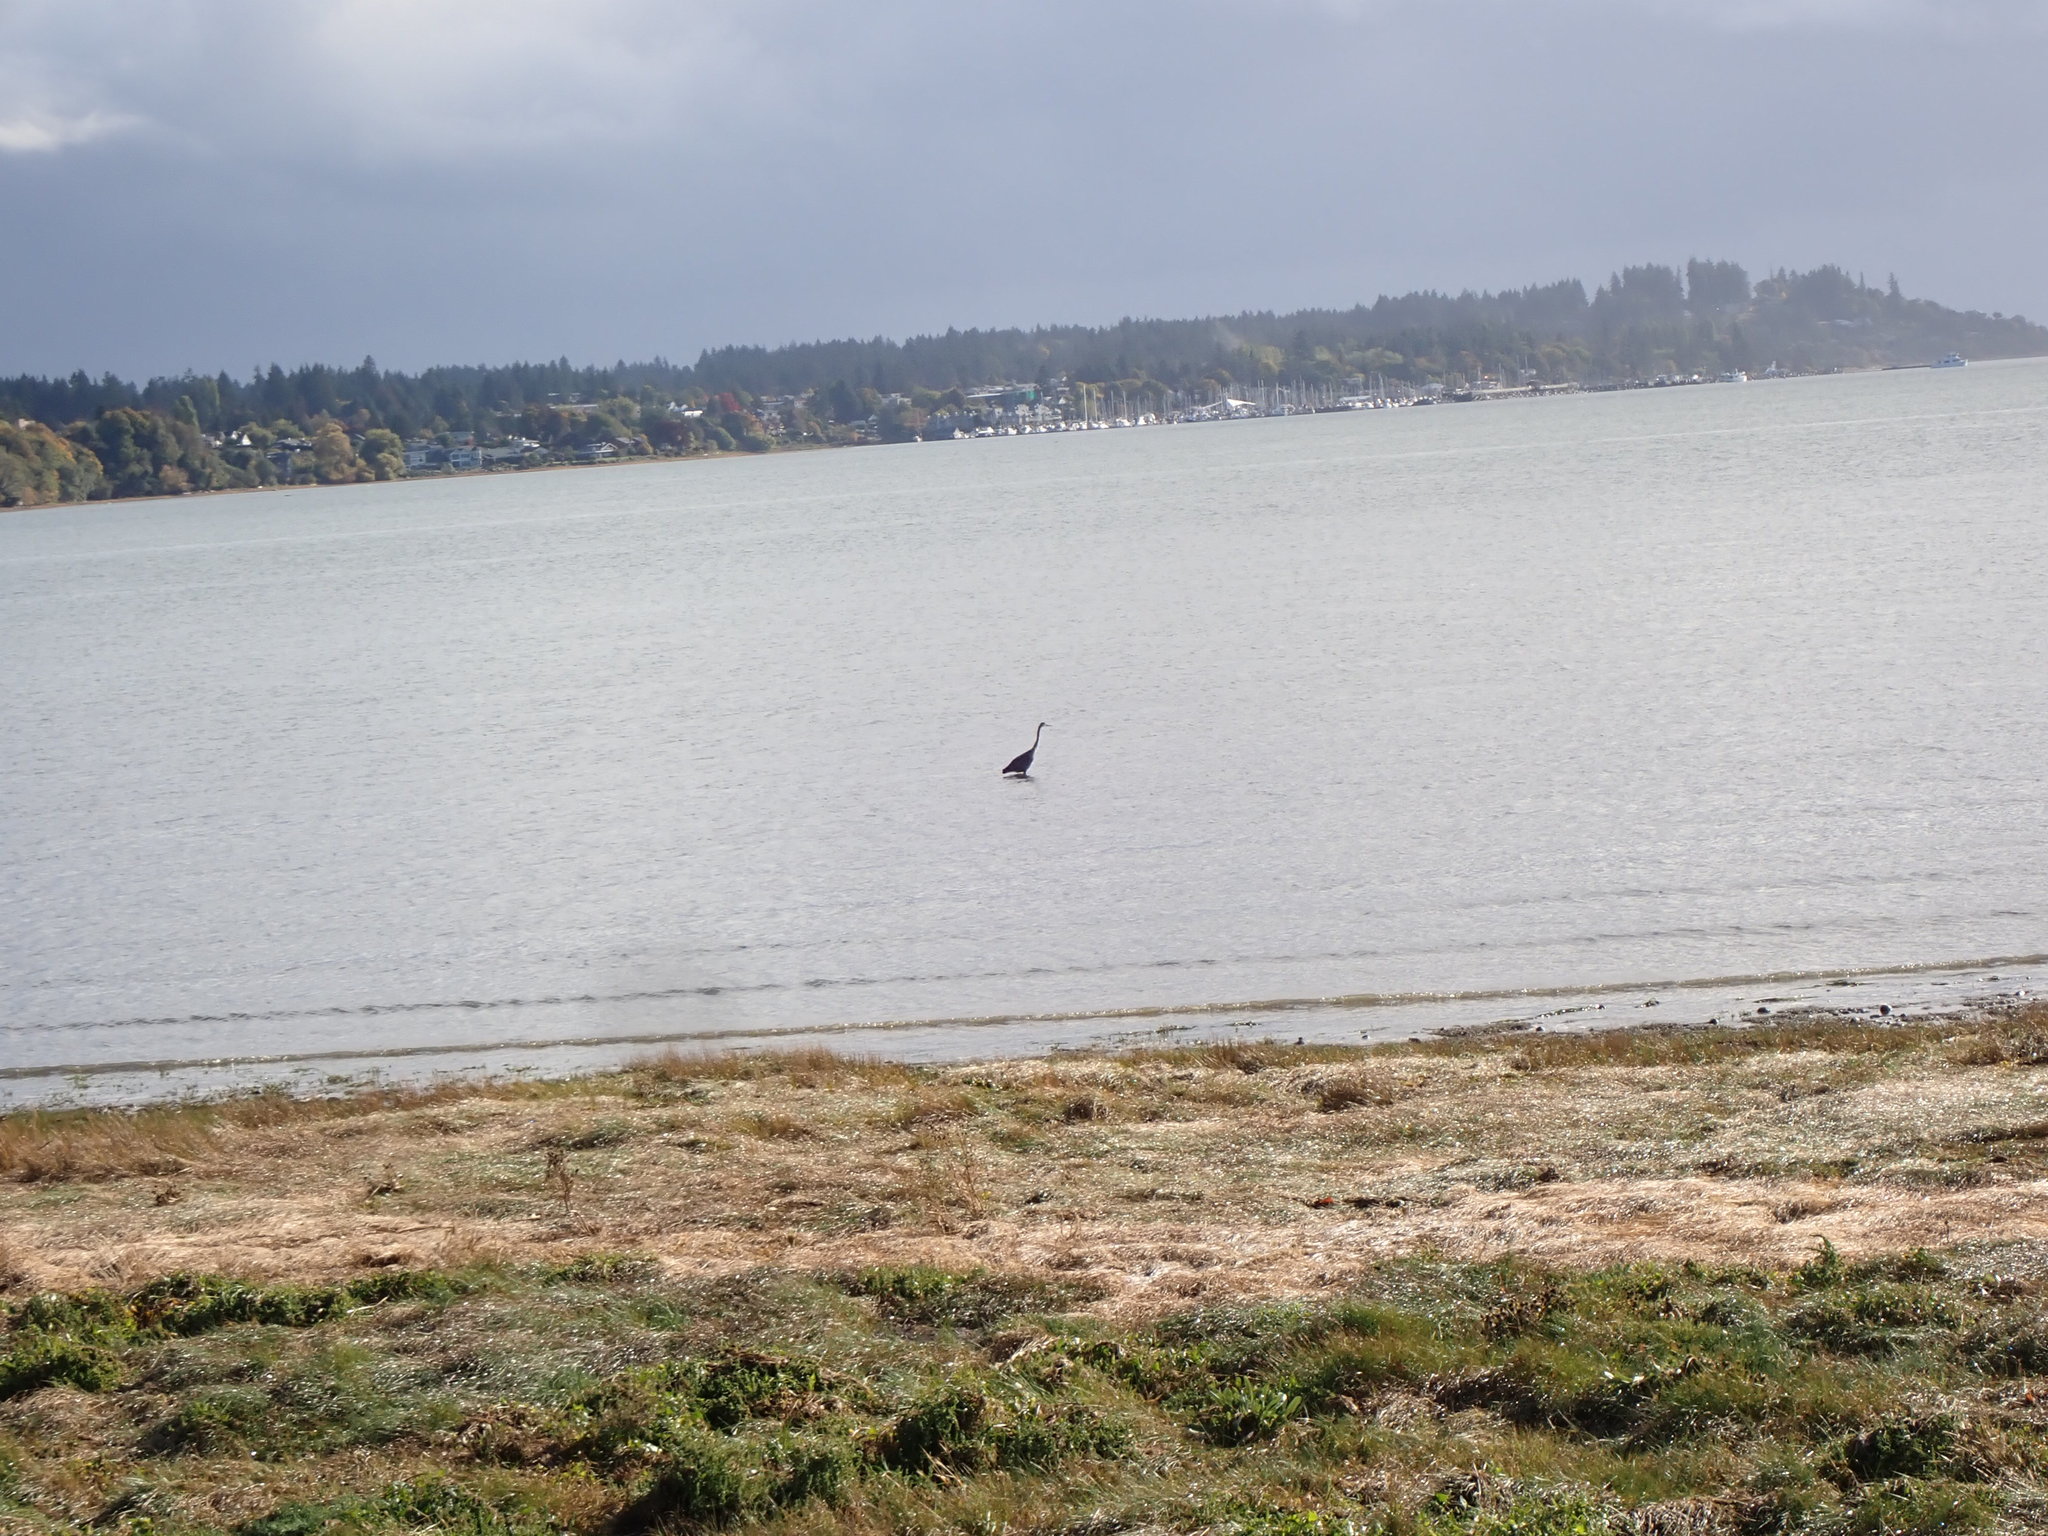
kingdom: Animalia
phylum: Chordata
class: Aves
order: Pelecaniformes
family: Ardeidae
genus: Ardea
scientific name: Ardea herodias
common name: Great blue heron
